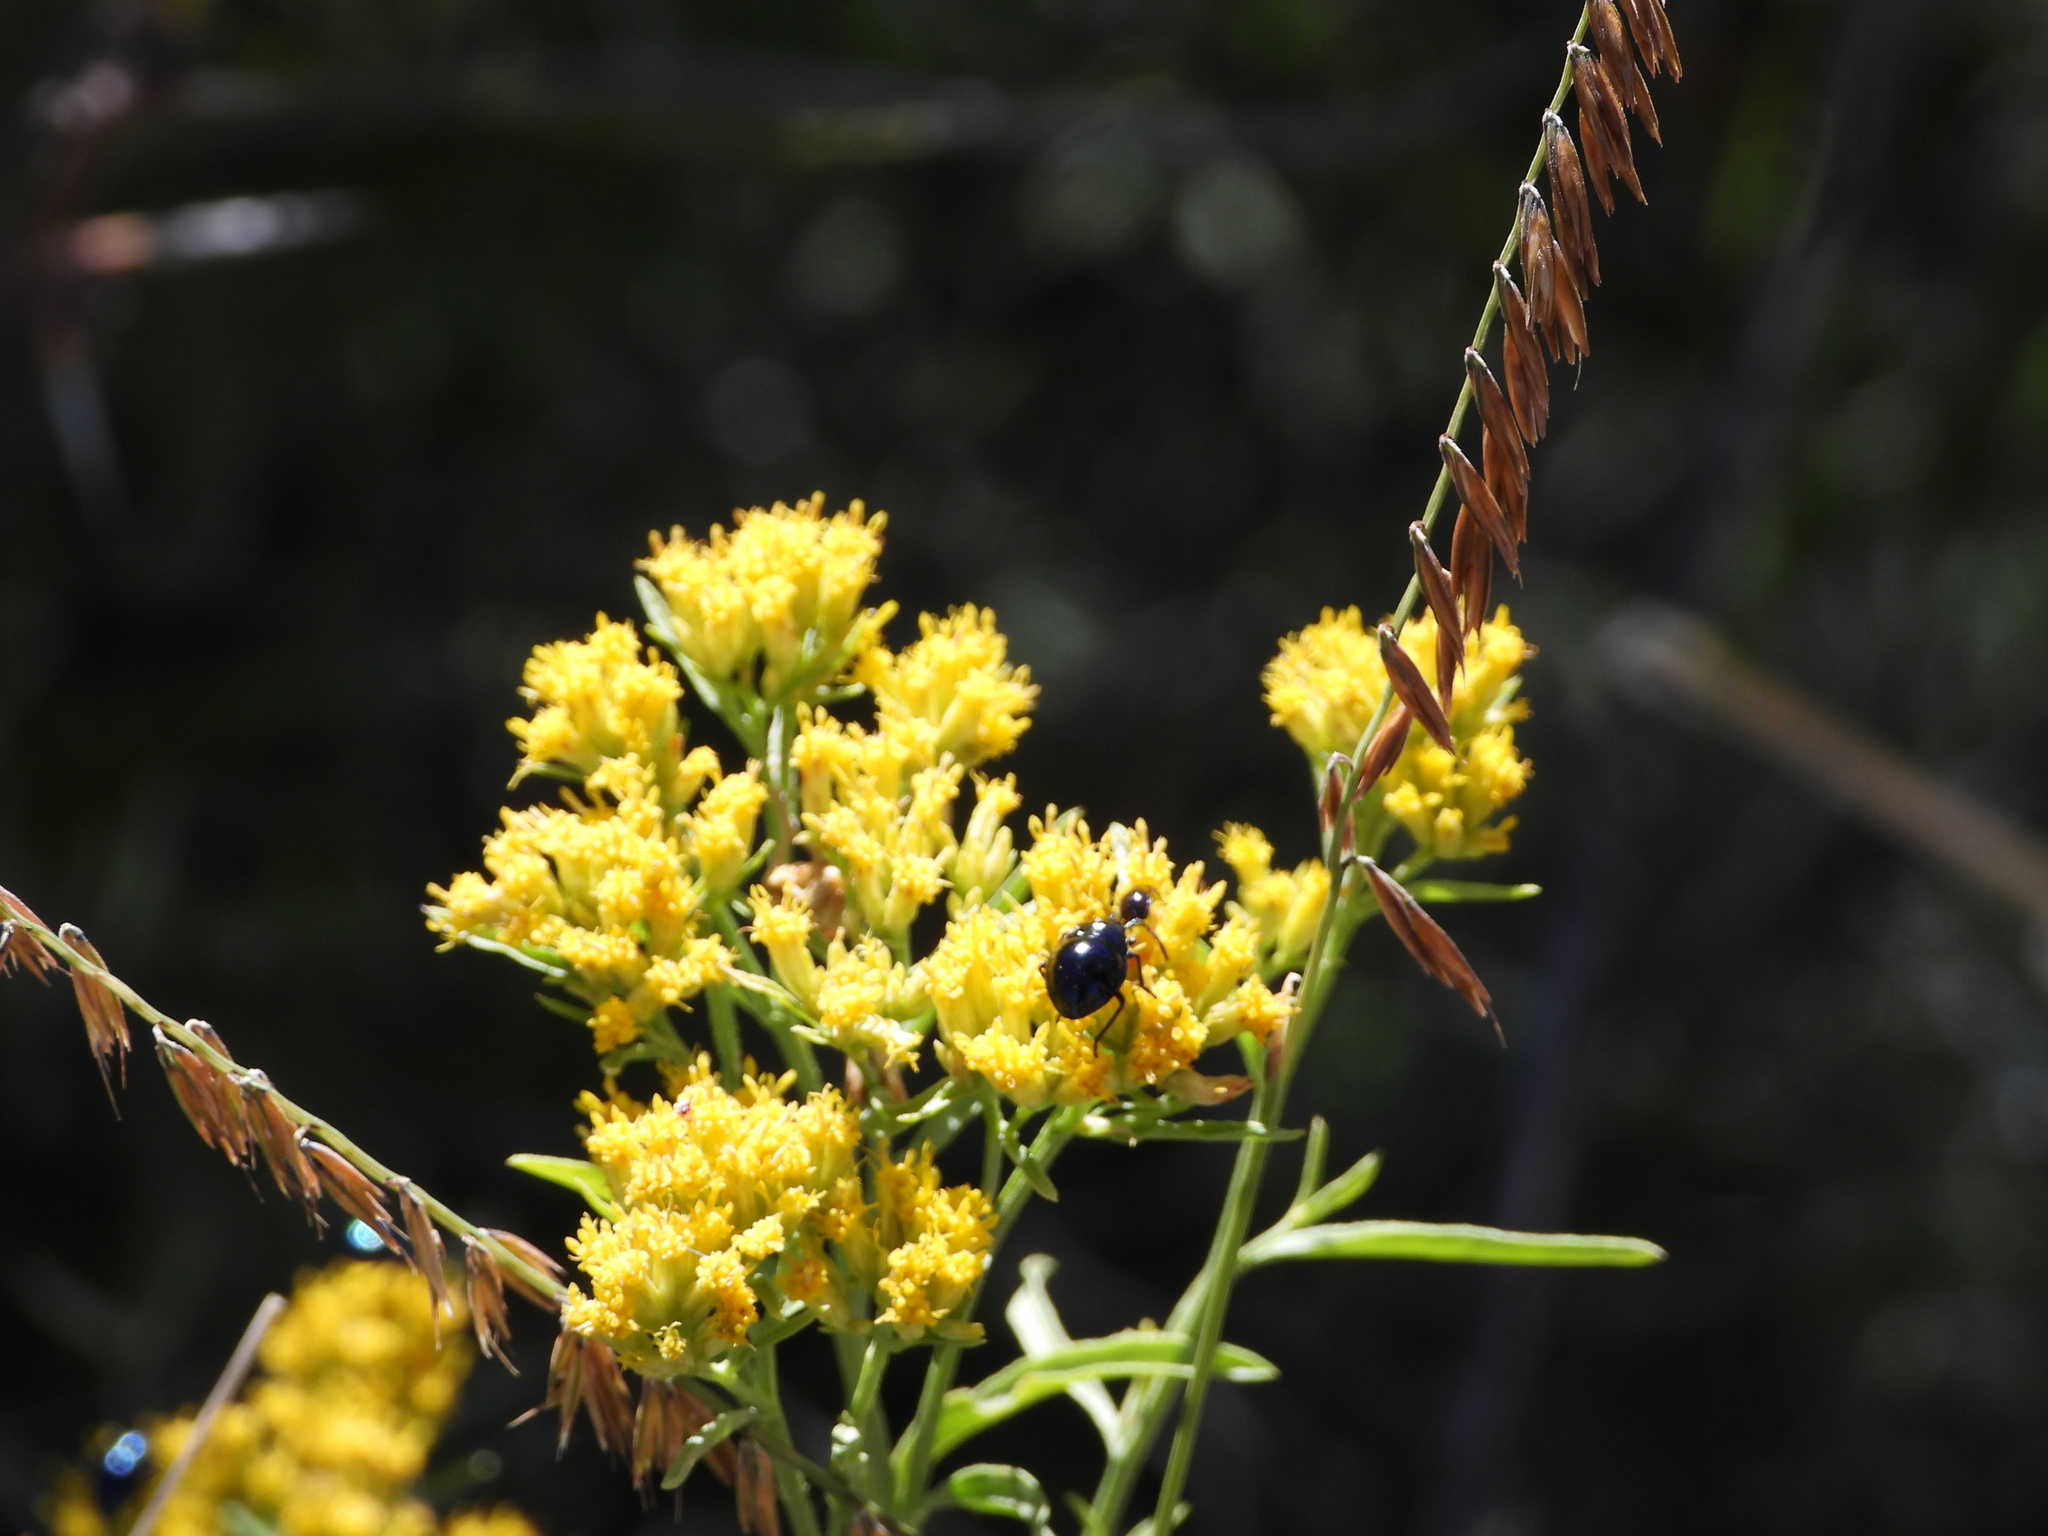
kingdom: Plantae
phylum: Tracheophyta
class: Liliopsida
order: Poales
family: Poaceae
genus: Bouteloua
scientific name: Bouteloua curtipendula
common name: Side-oats grama
